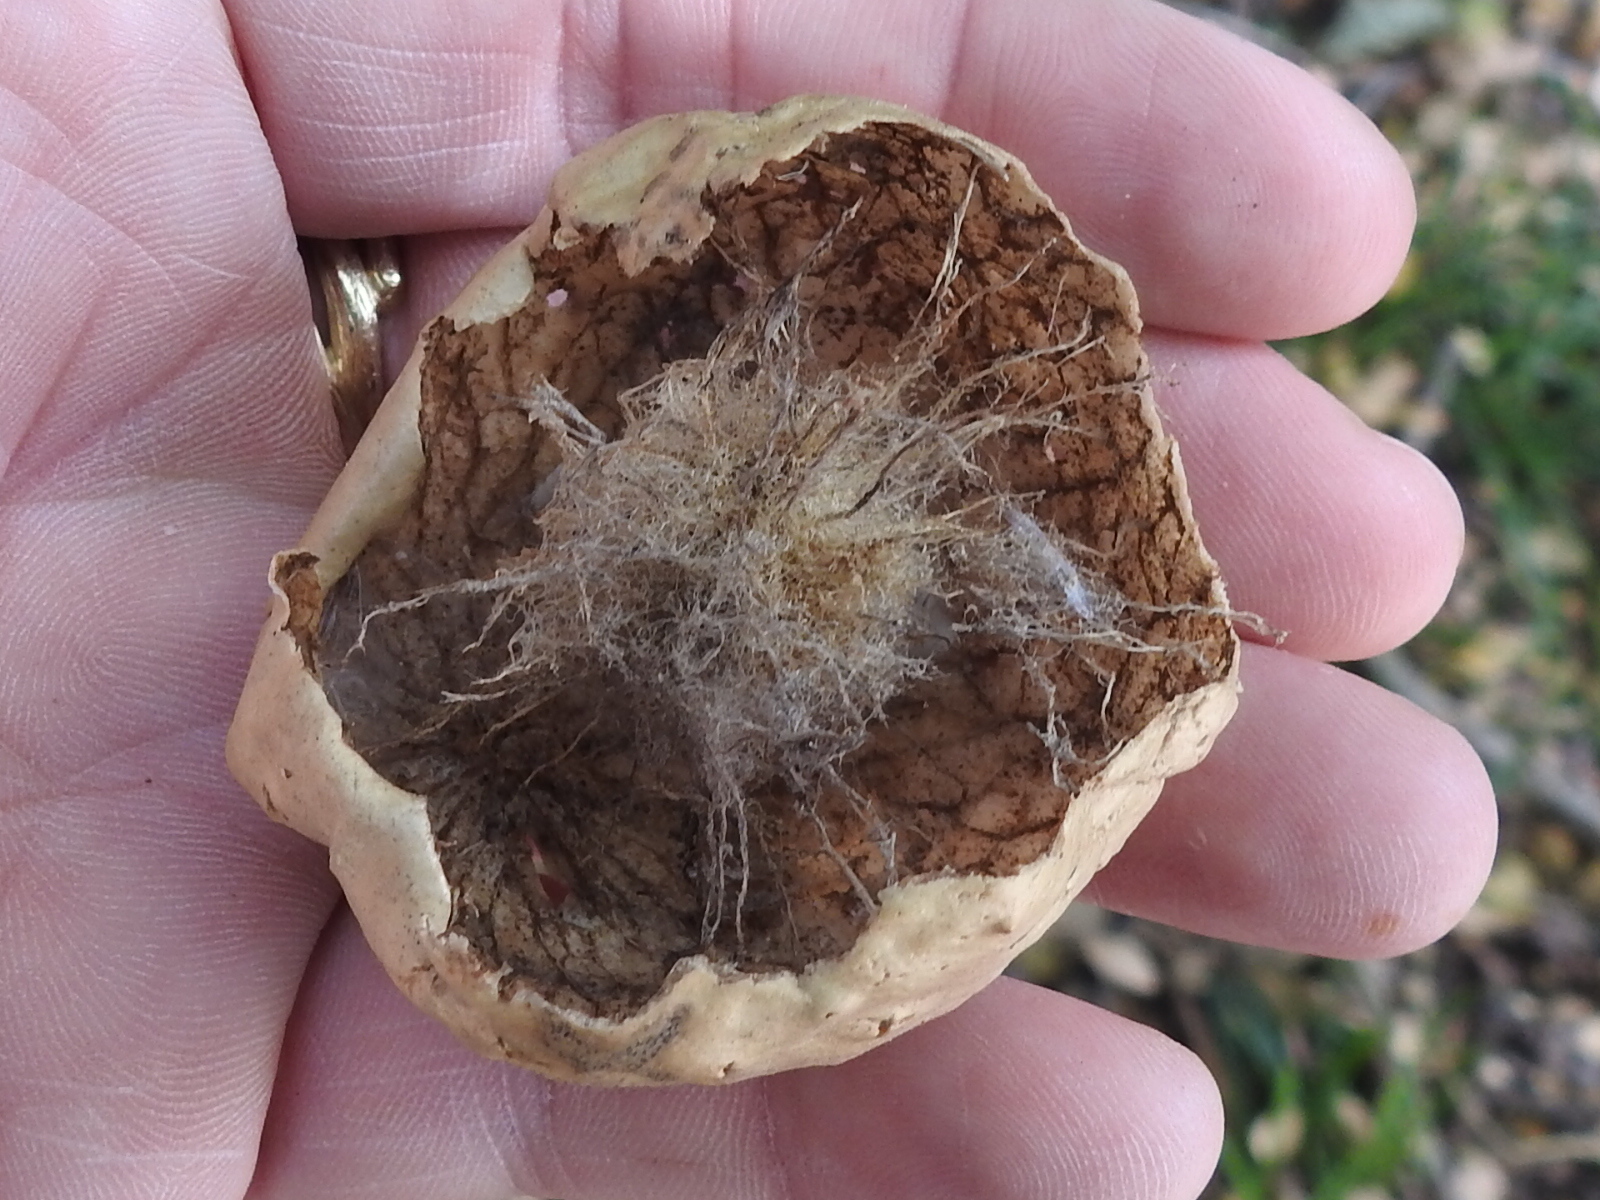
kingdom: Animalia
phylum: Arthropoda
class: Insecta
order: Hymenoptera
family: Cynipidae
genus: Amphibolips
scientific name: Amphibolips
